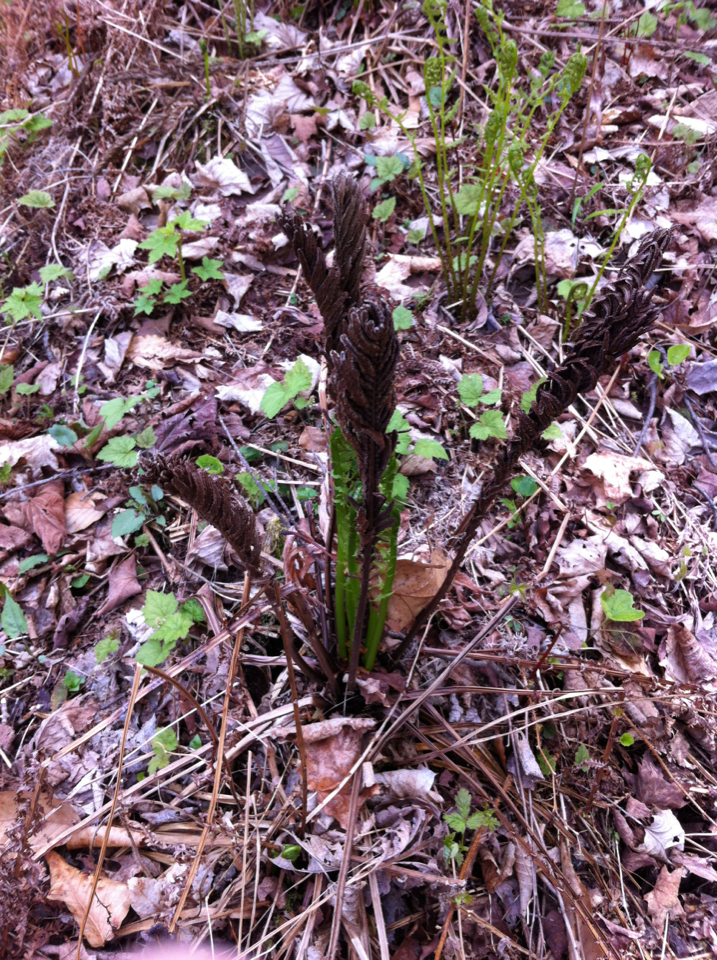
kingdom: Plantae
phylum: Tracheophyta
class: Polypodiopsida
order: Polypodiales
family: Onocleaceae
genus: Matteuccia
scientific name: Matteuccia struthiopteris
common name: Ostrich fern
